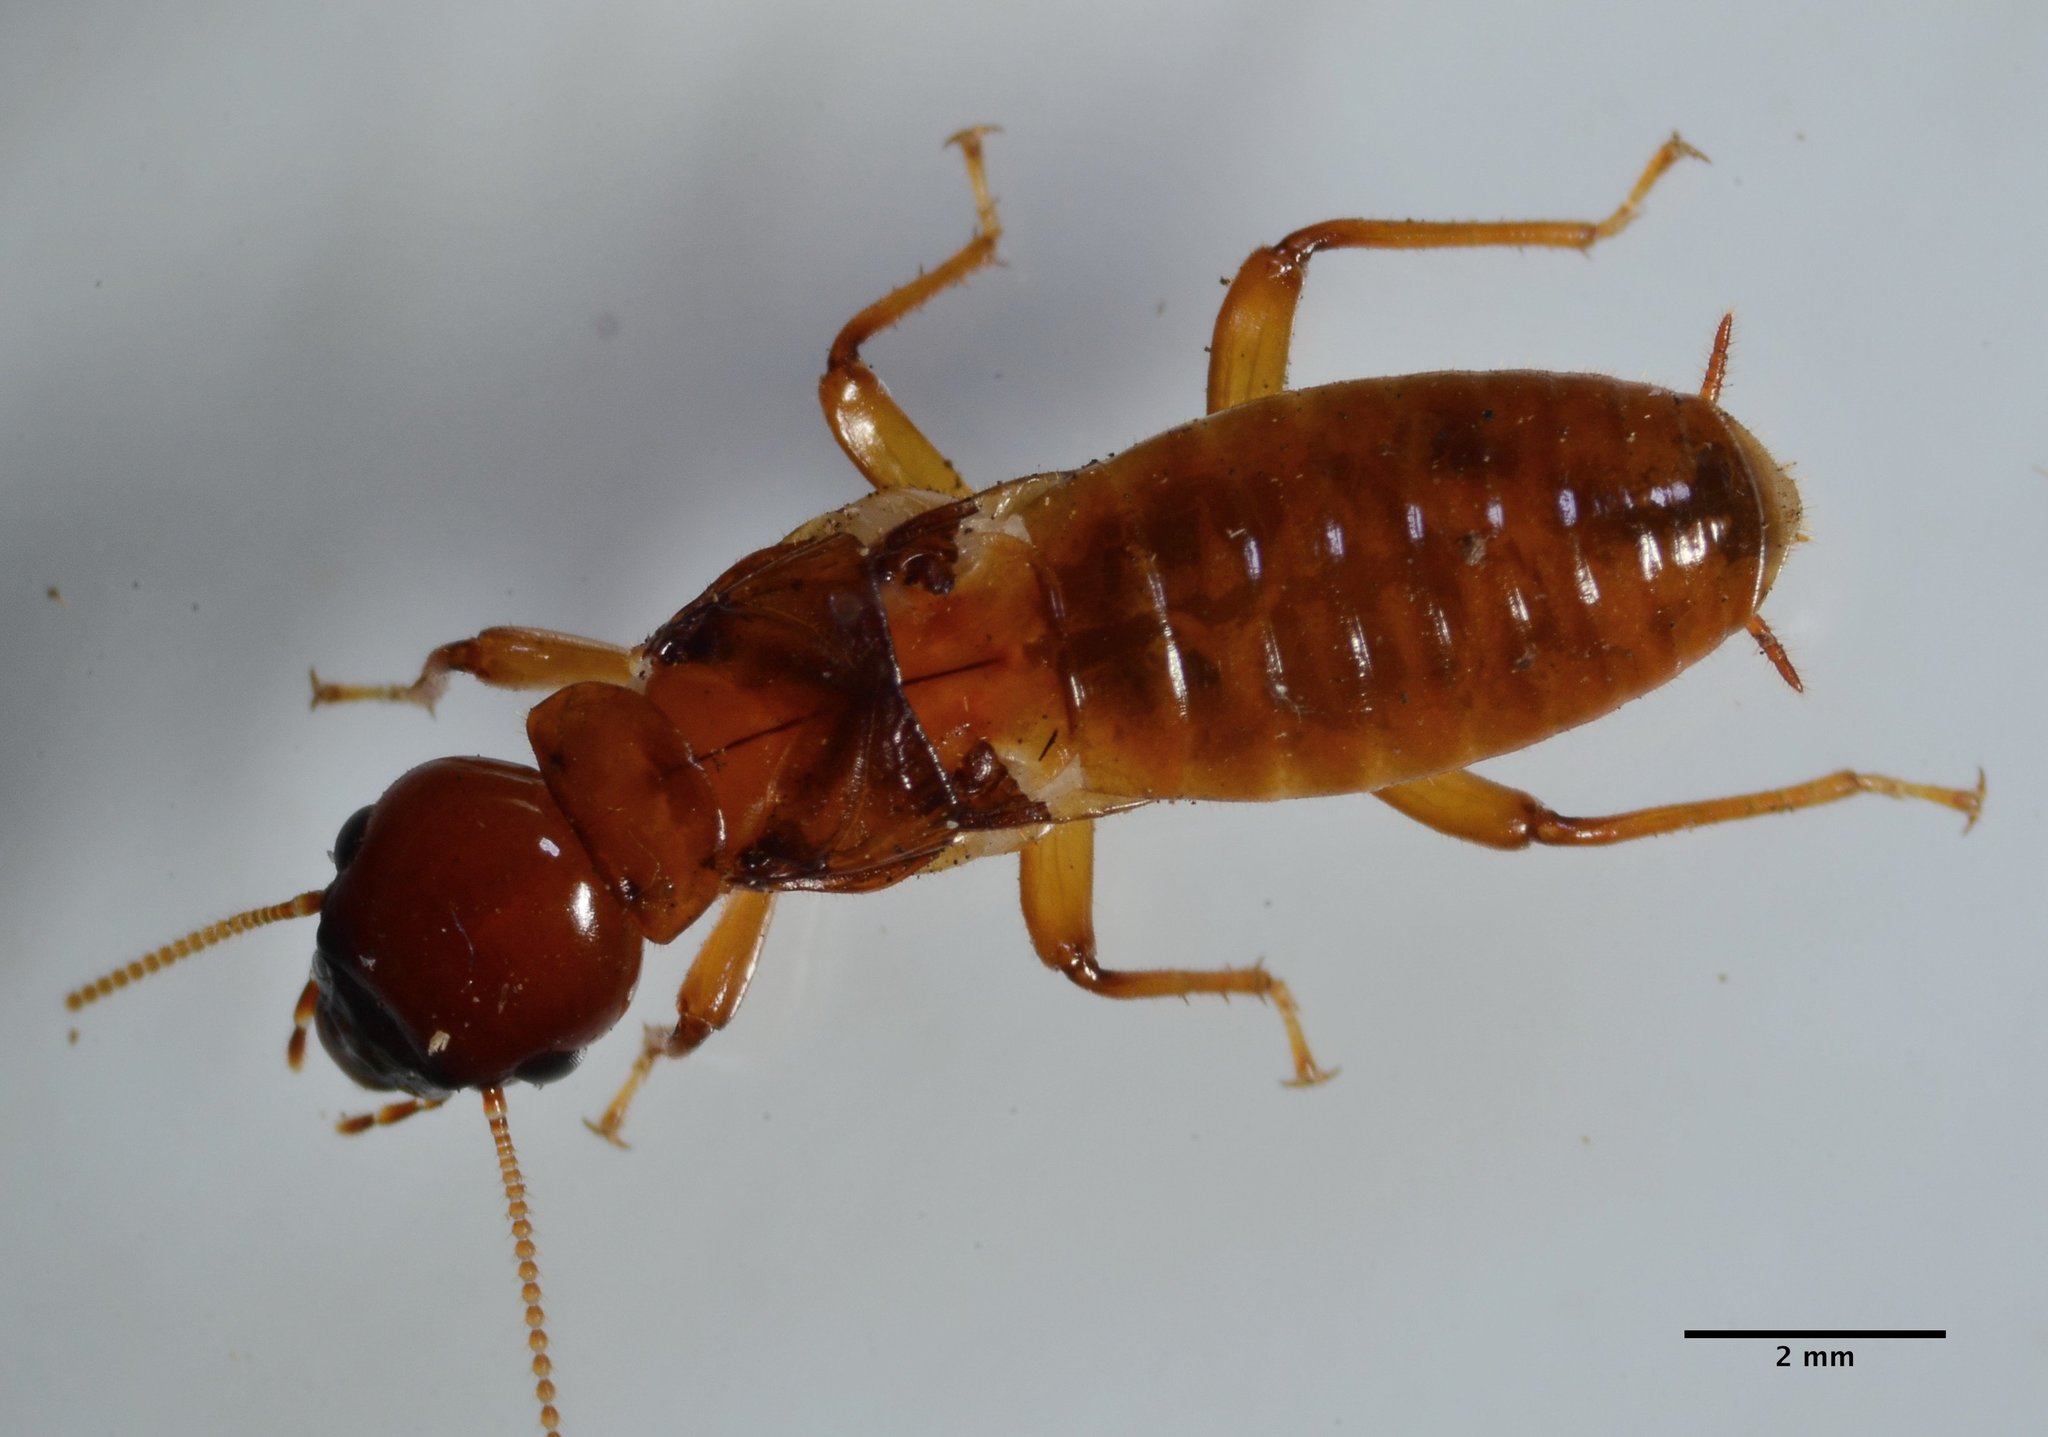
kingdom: Animalia
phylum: Arthropoda
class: Insecta
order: Blattodea
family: Archotermopsidae
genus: Zootermopsis
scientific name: Zootermopsis angusticollis
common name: Rottenwood termite
